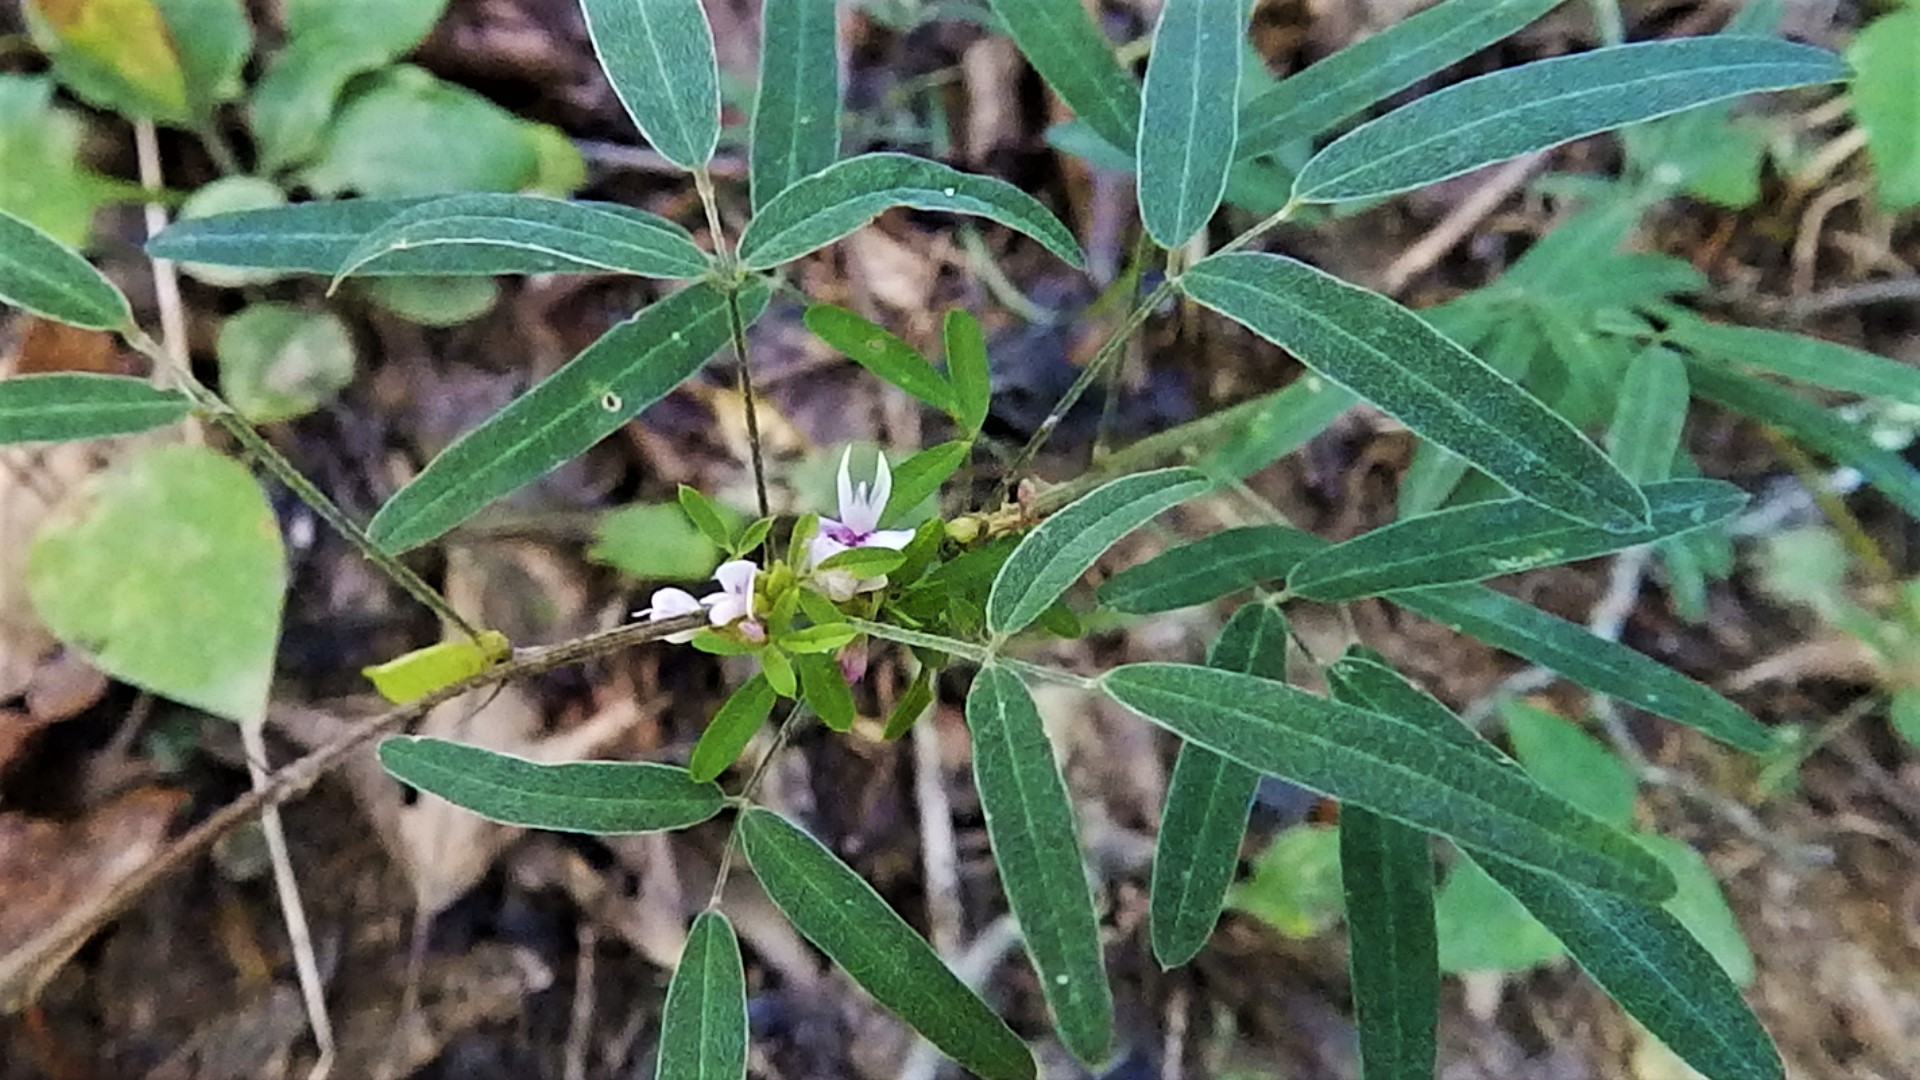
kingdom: Plantae
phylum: Tracheophyta
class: Magnoliopsida
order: Fabales
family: Fabaceae
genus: Lespedeza
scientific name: Lespedeza virginica
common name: Slender bush-clover
